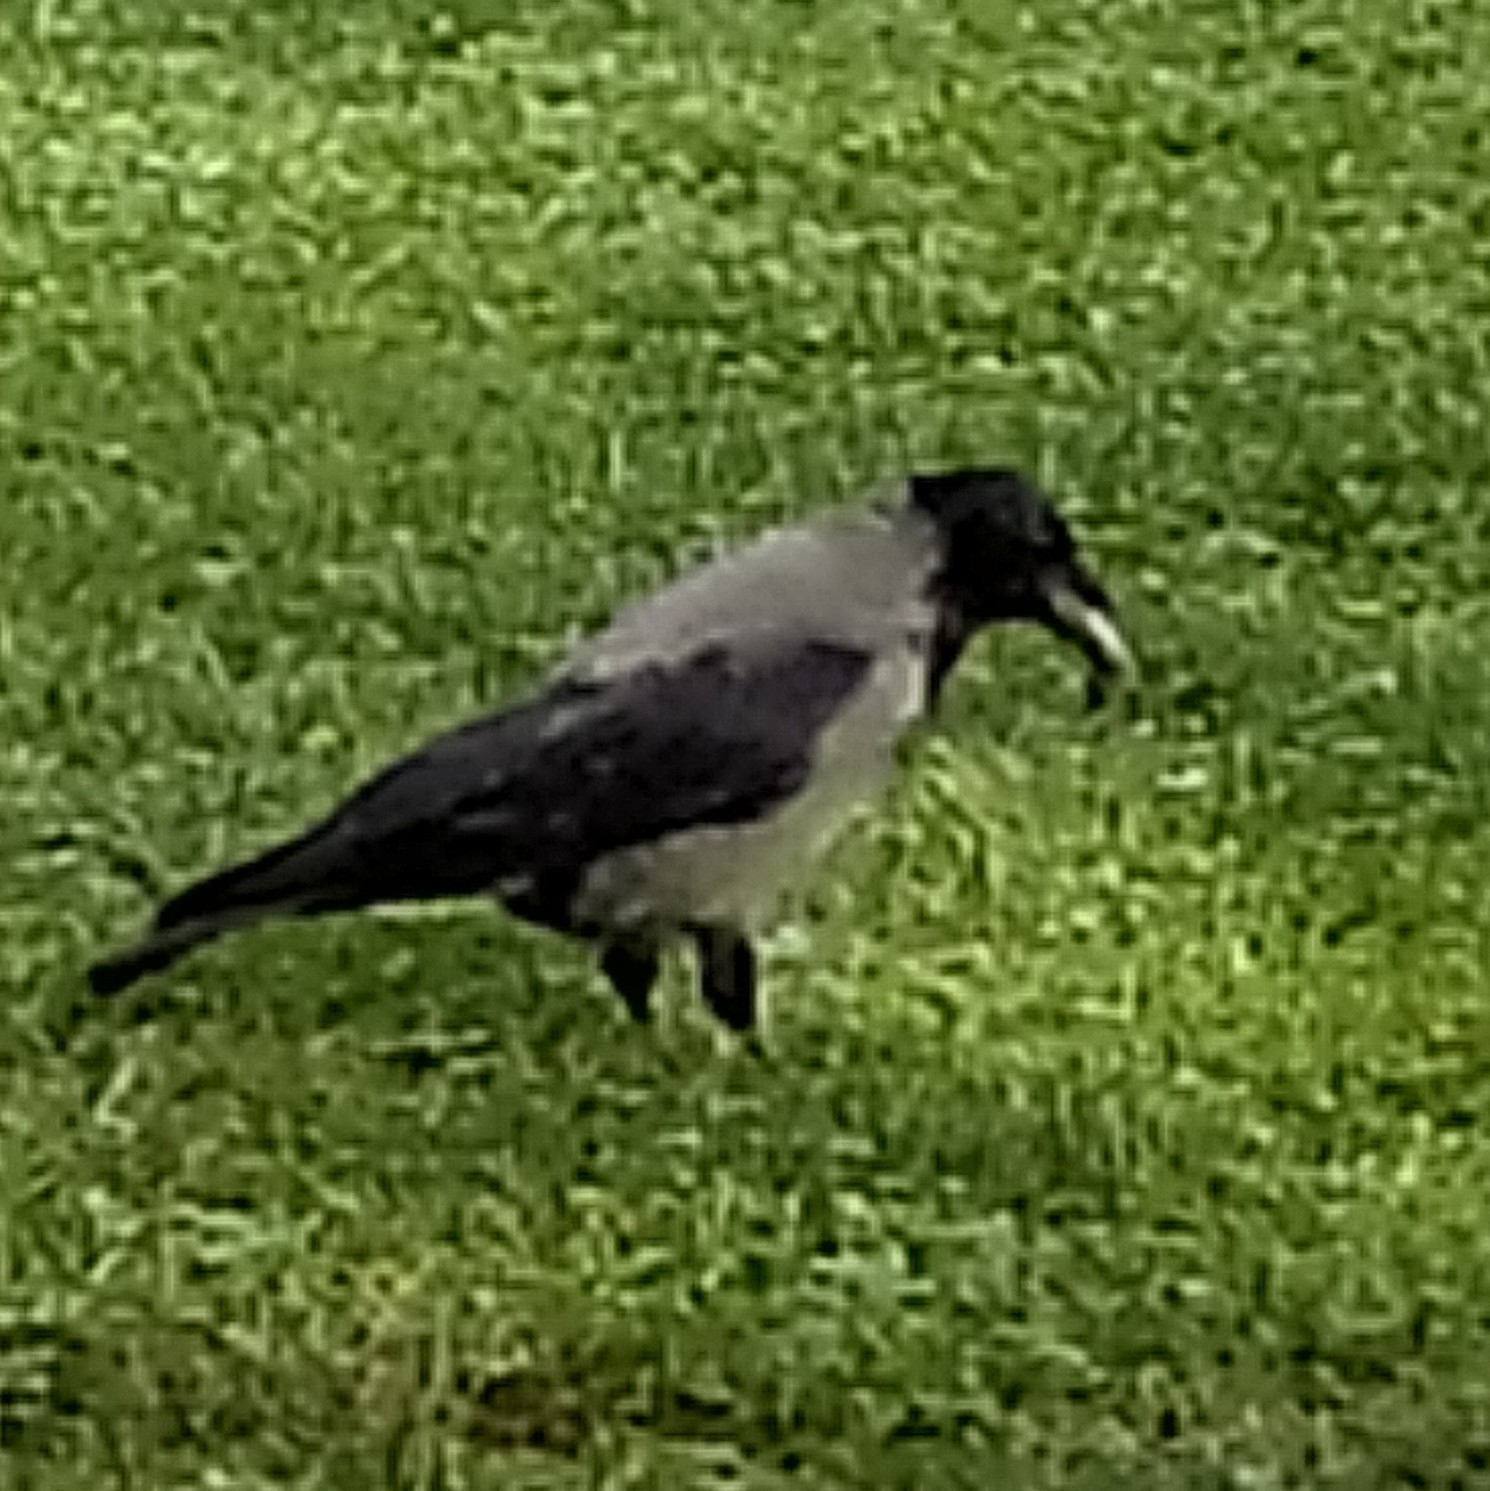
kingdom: Animalia
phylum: Chordata
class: Aves
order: Passeriformes
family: Corvidae
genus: Corvus
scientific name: Corvus cornix
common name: Hooded crow
